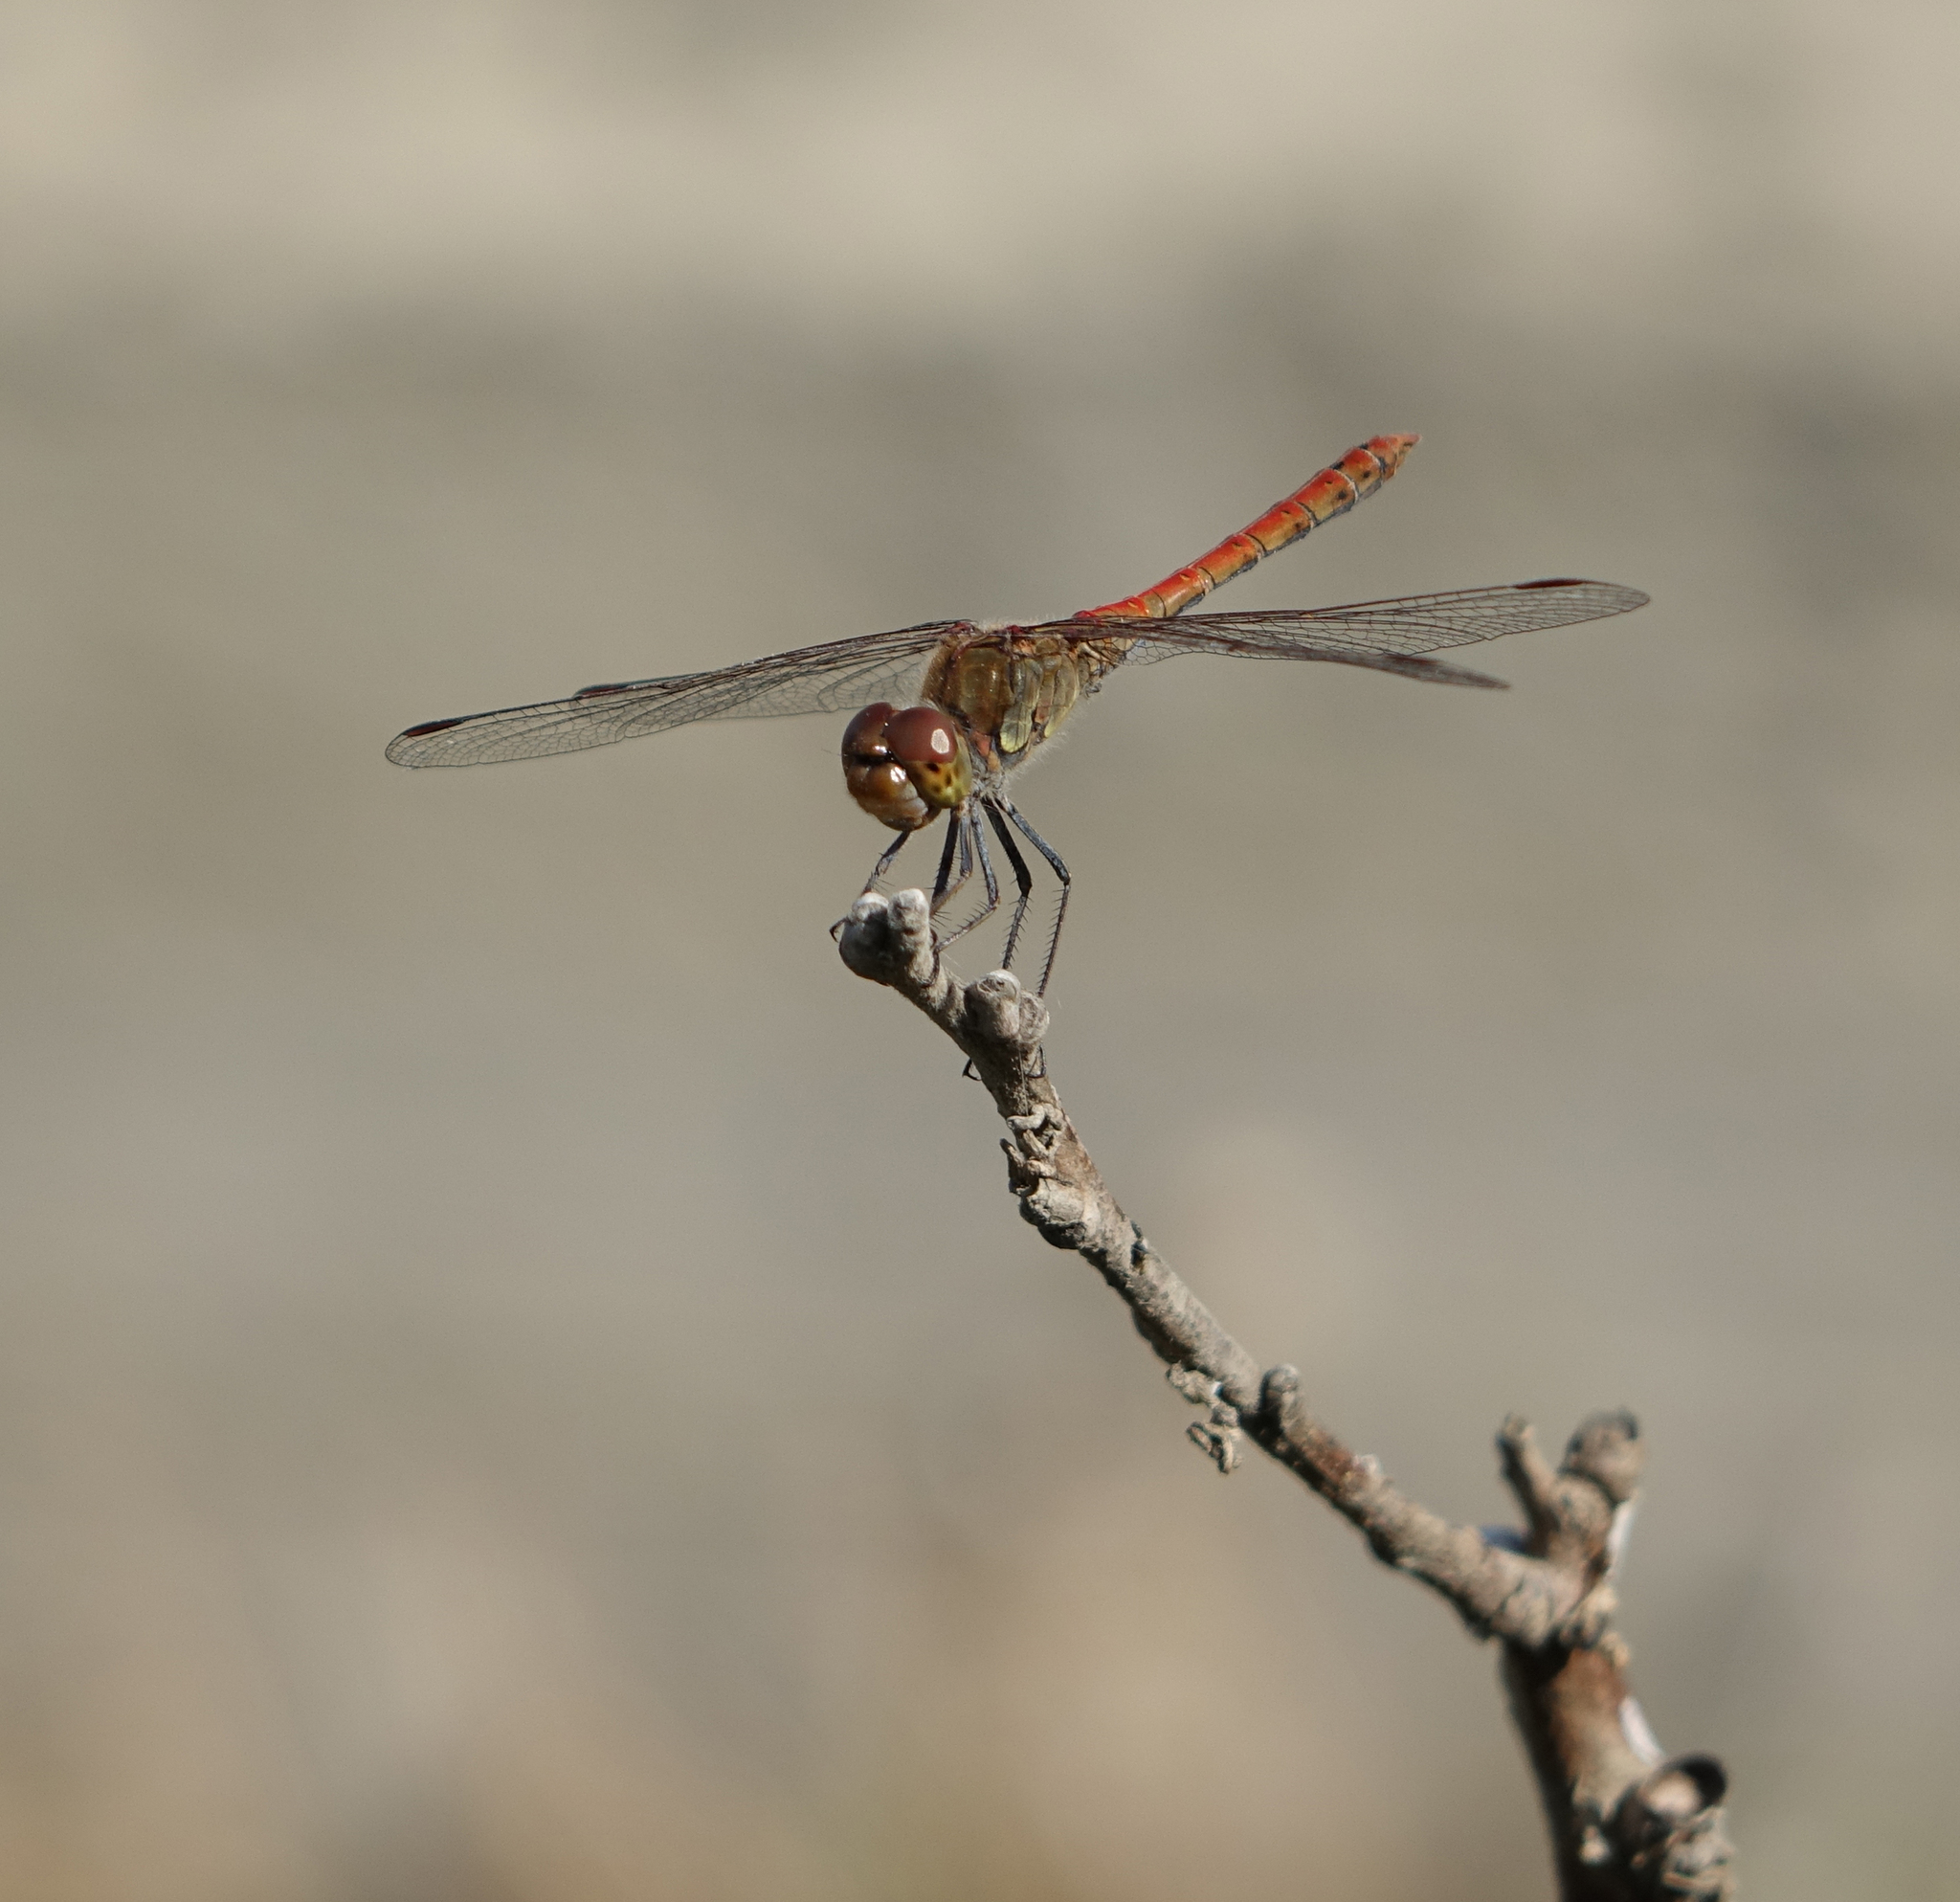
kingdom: Animalia
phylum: Arthropoda
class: Insecta
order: Odonata
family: Libellulidae
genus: Sympetrum
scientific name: Sympetrum striolatum
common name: Common darter
